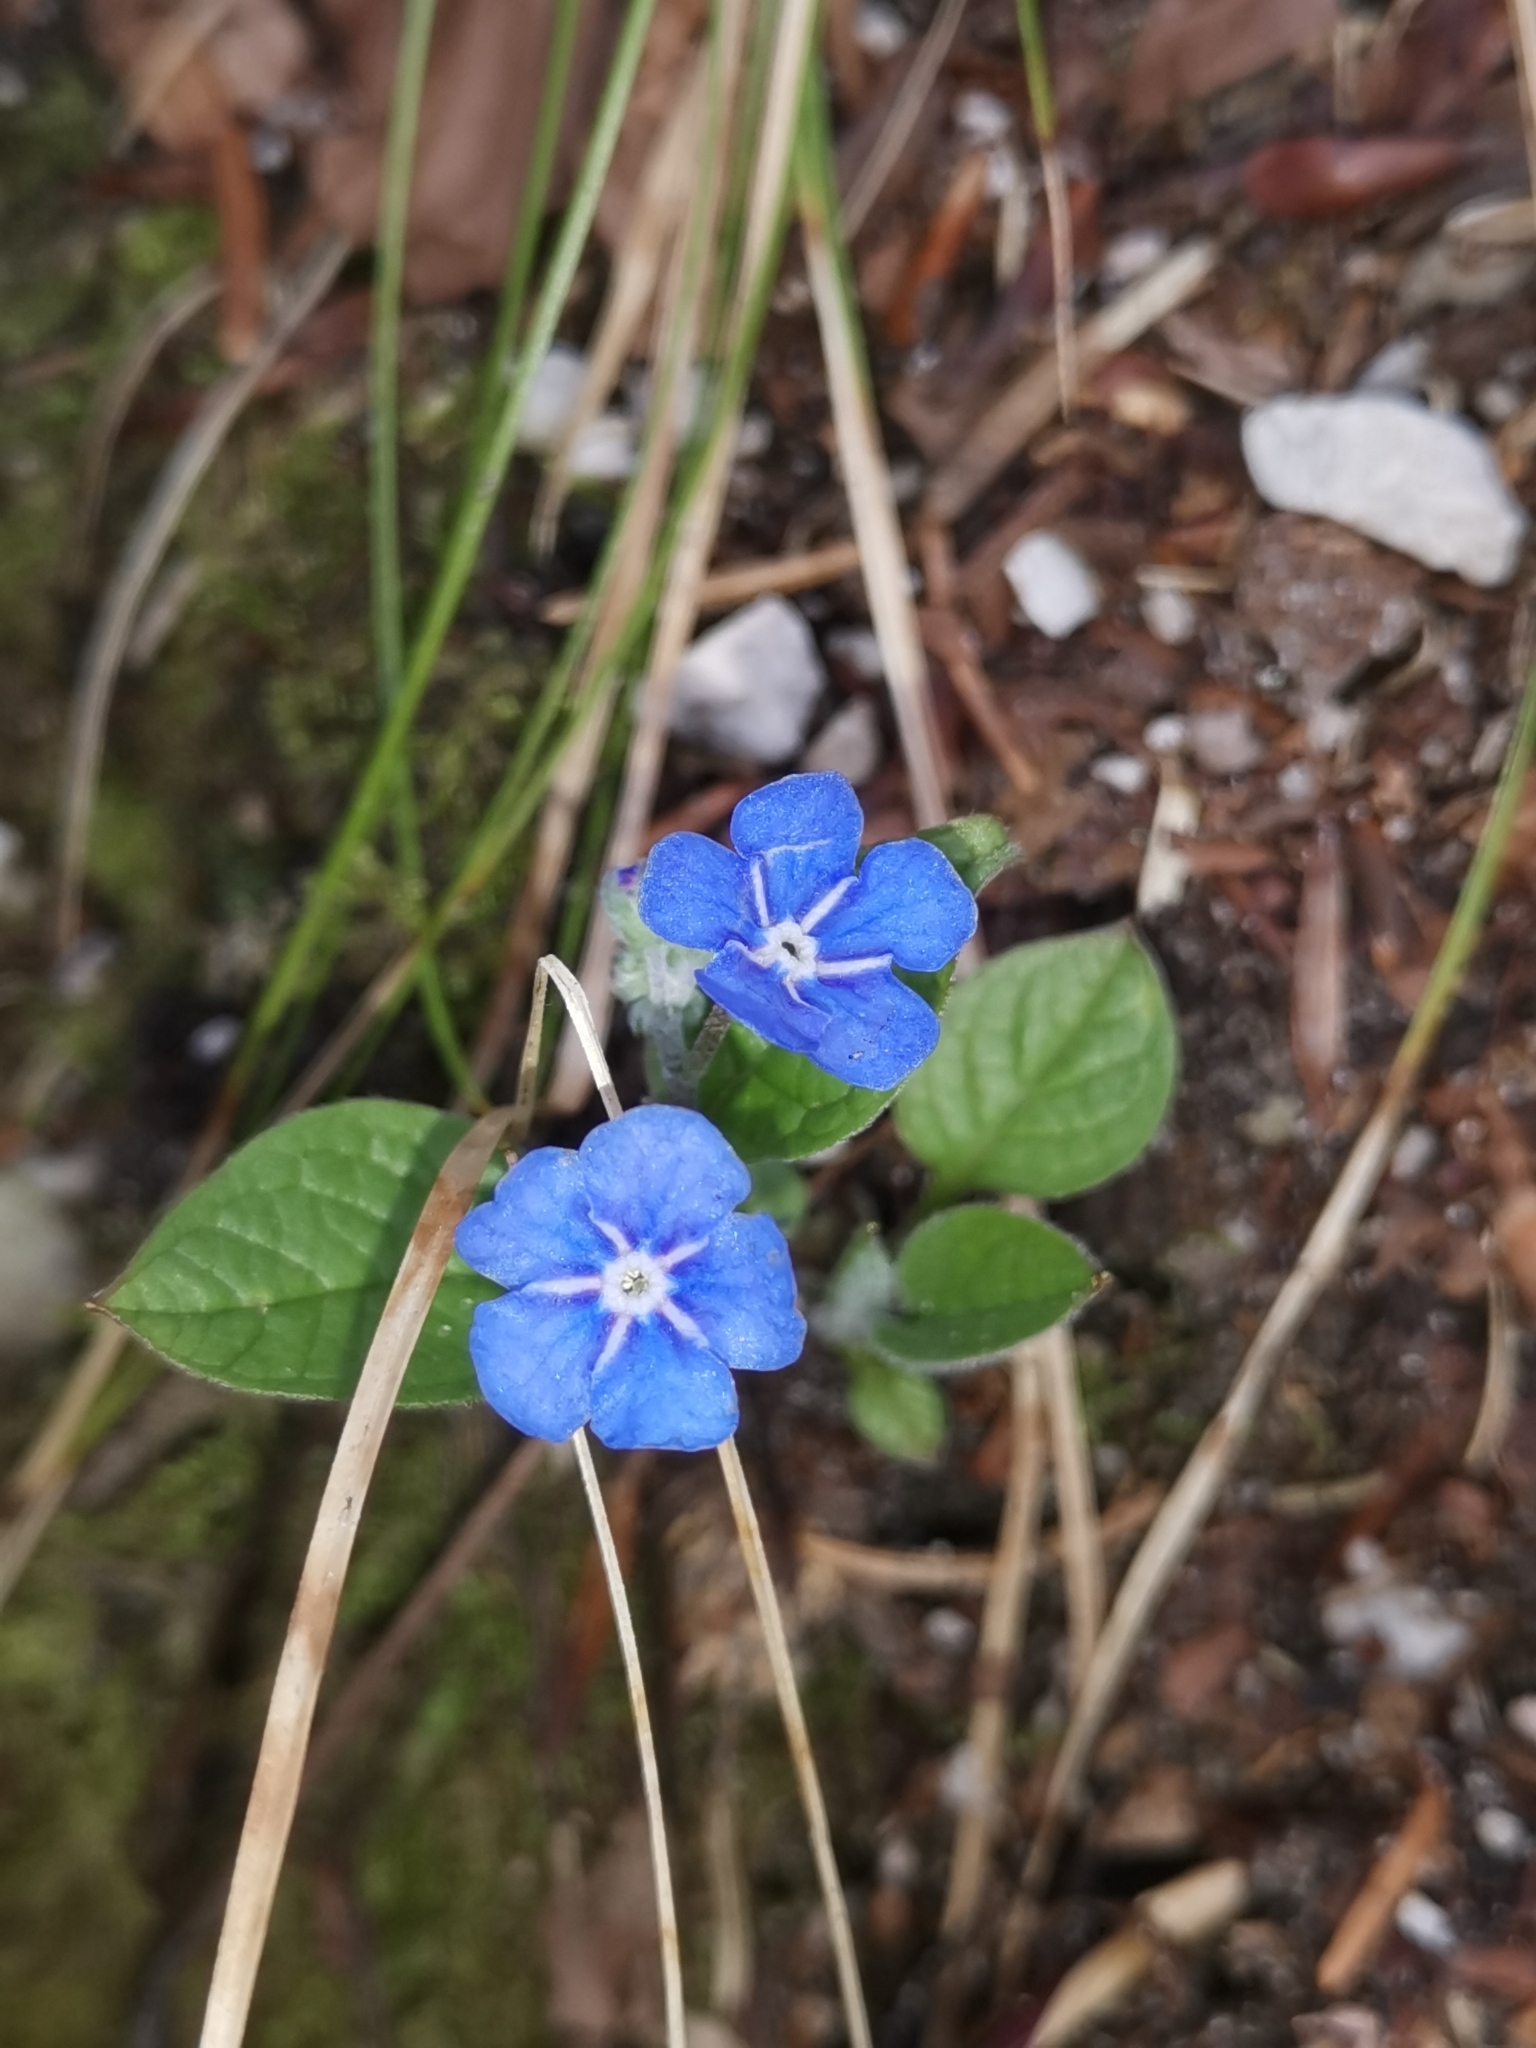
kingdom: Plantae
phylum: Tracheophyta
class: Magnoliopsida
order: Boraginales
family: Boraginaceae
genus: Omphalodes
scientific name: Omphalodes verna
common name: Blue-eyed-mary
